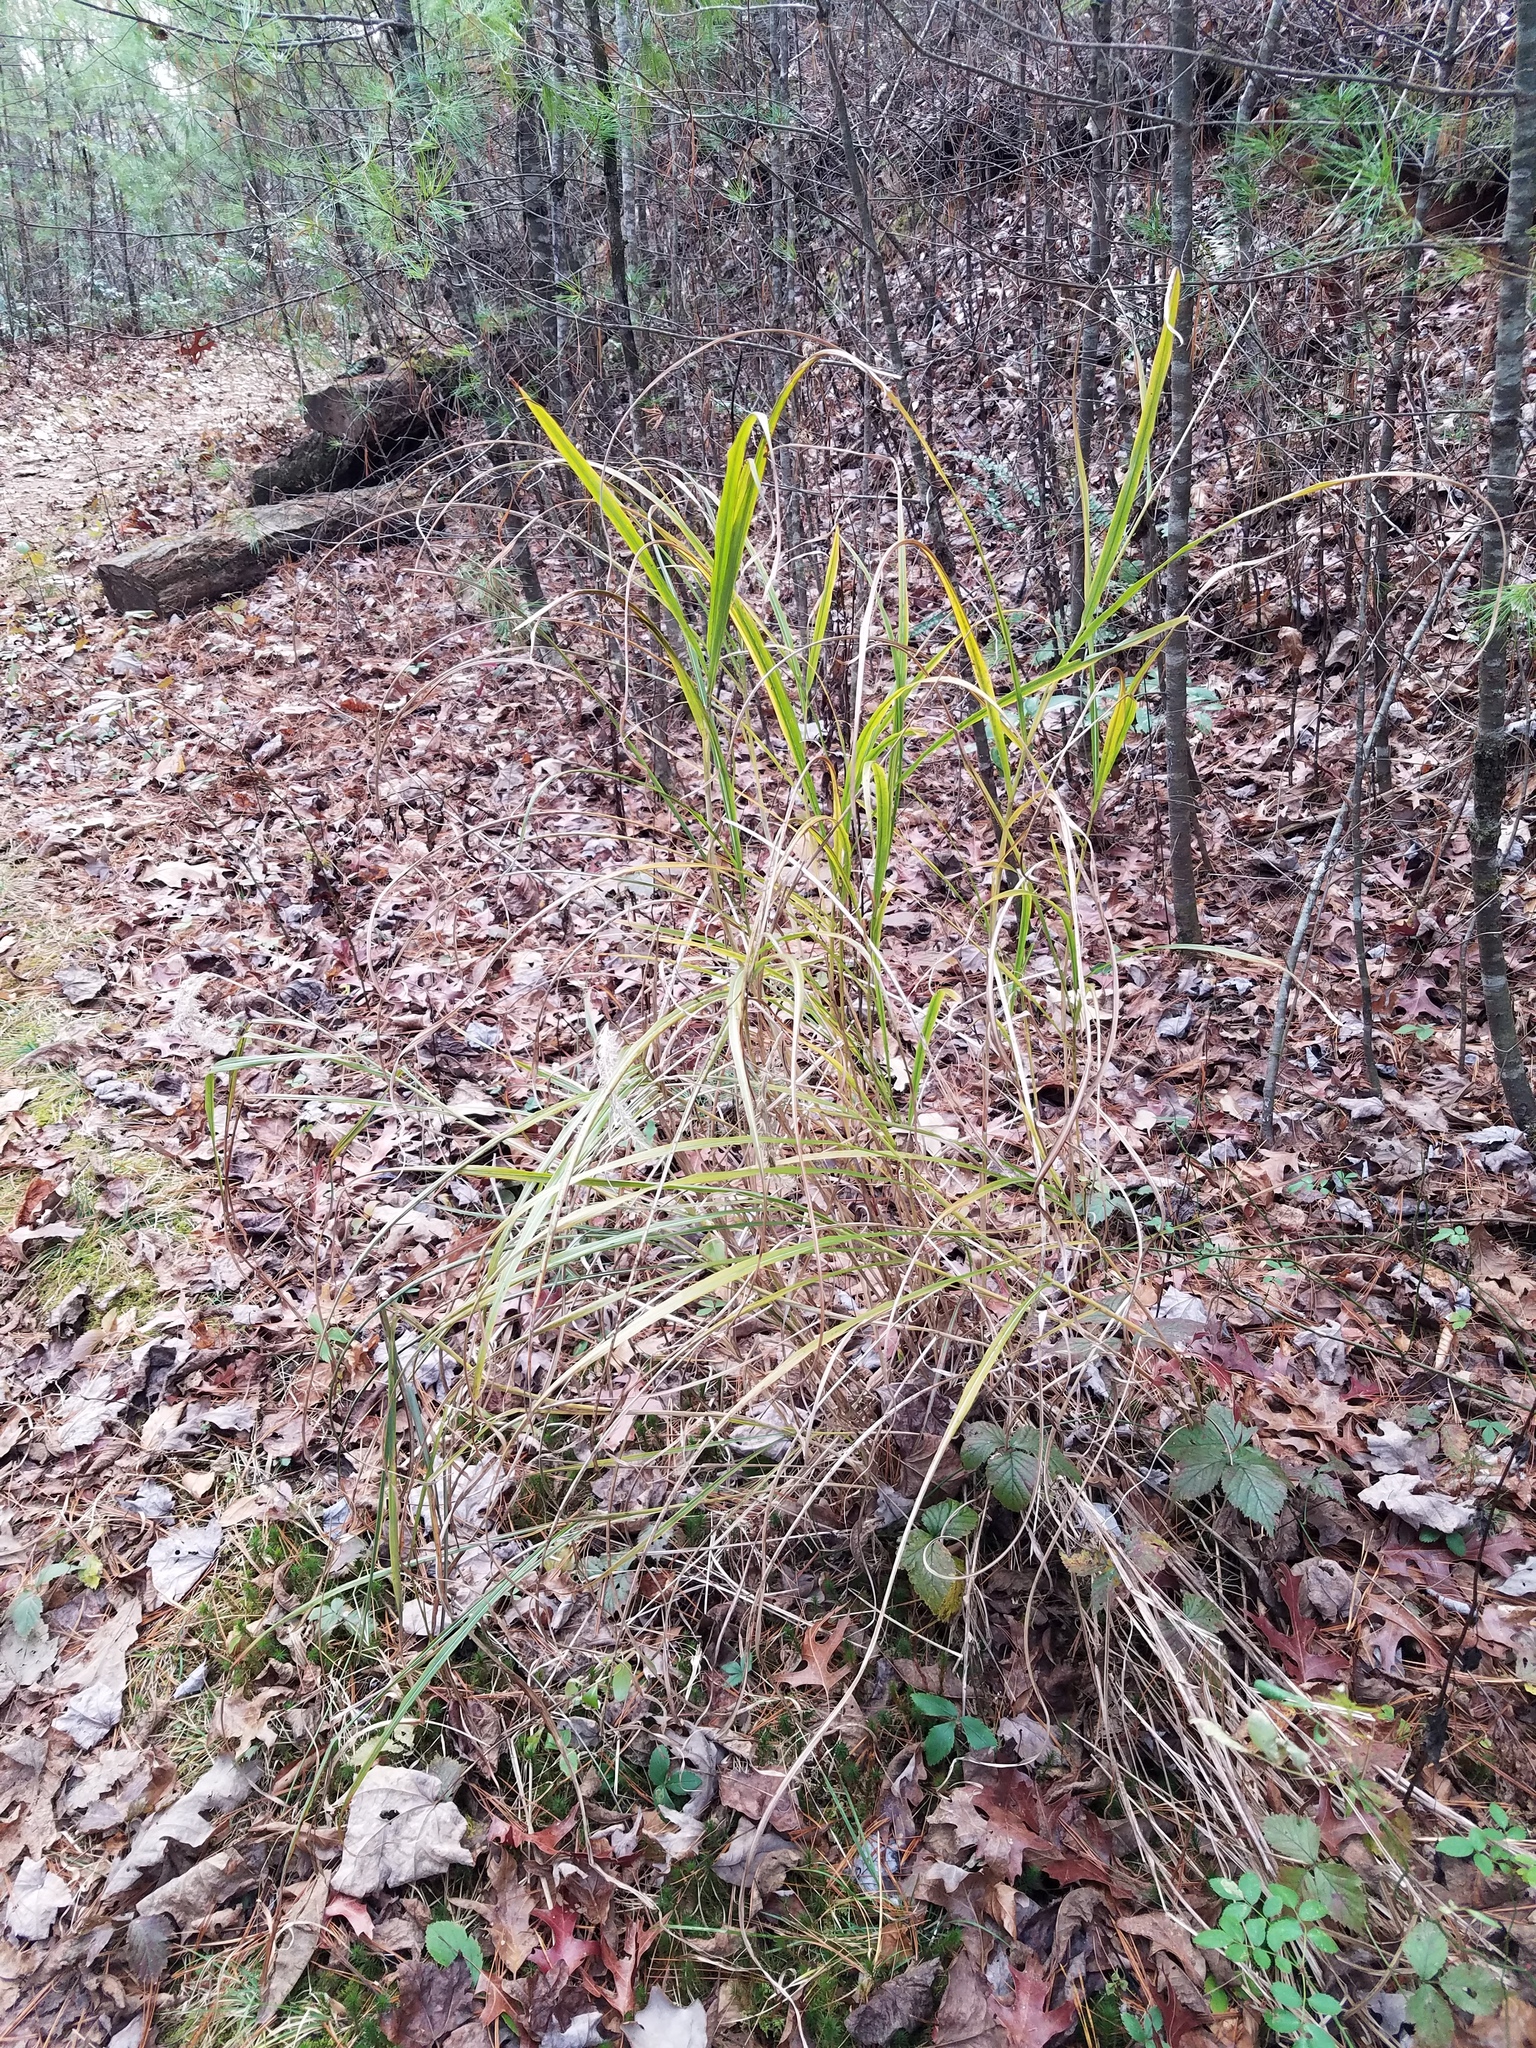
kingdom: Plantae
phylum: Tracheophyta
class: Liliopsida
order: Poales
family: Poaceae
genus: Miscanthus
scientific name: Miscanthus sinensis
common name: Chinese silvergrass
